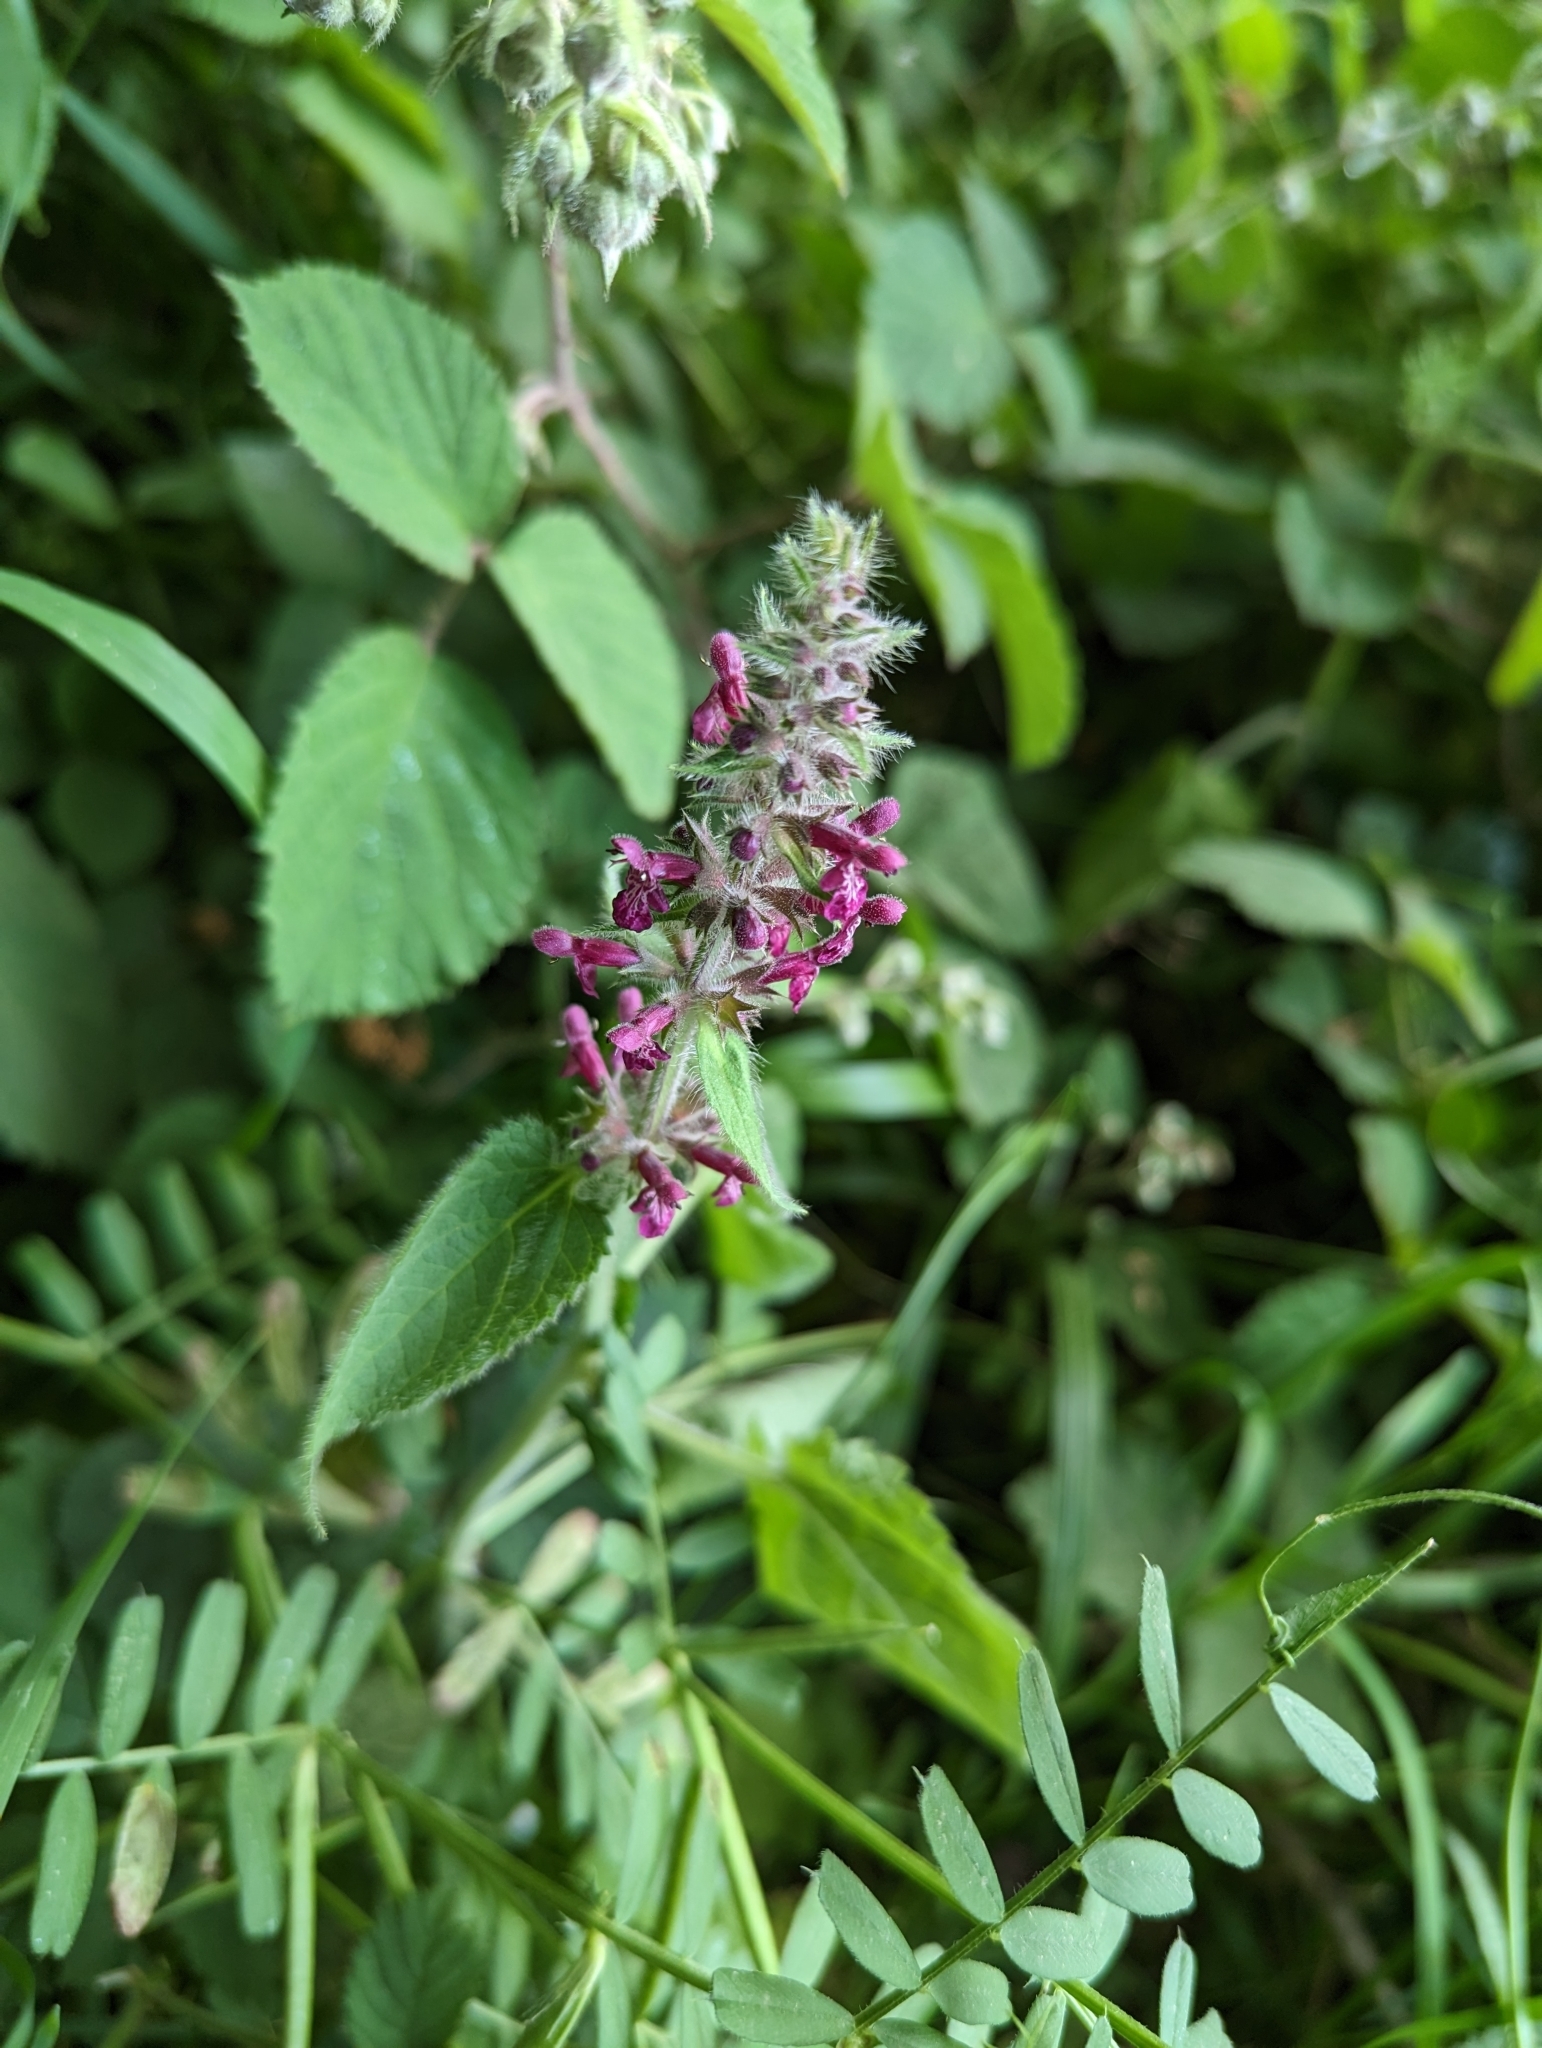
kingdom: Plantae
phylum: Tracheophyta
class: Magnoliopsida
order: Lamiales
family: Lamiaceae
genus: Stachys
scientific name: Stachys sylvatica
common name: Hedge woundwort
